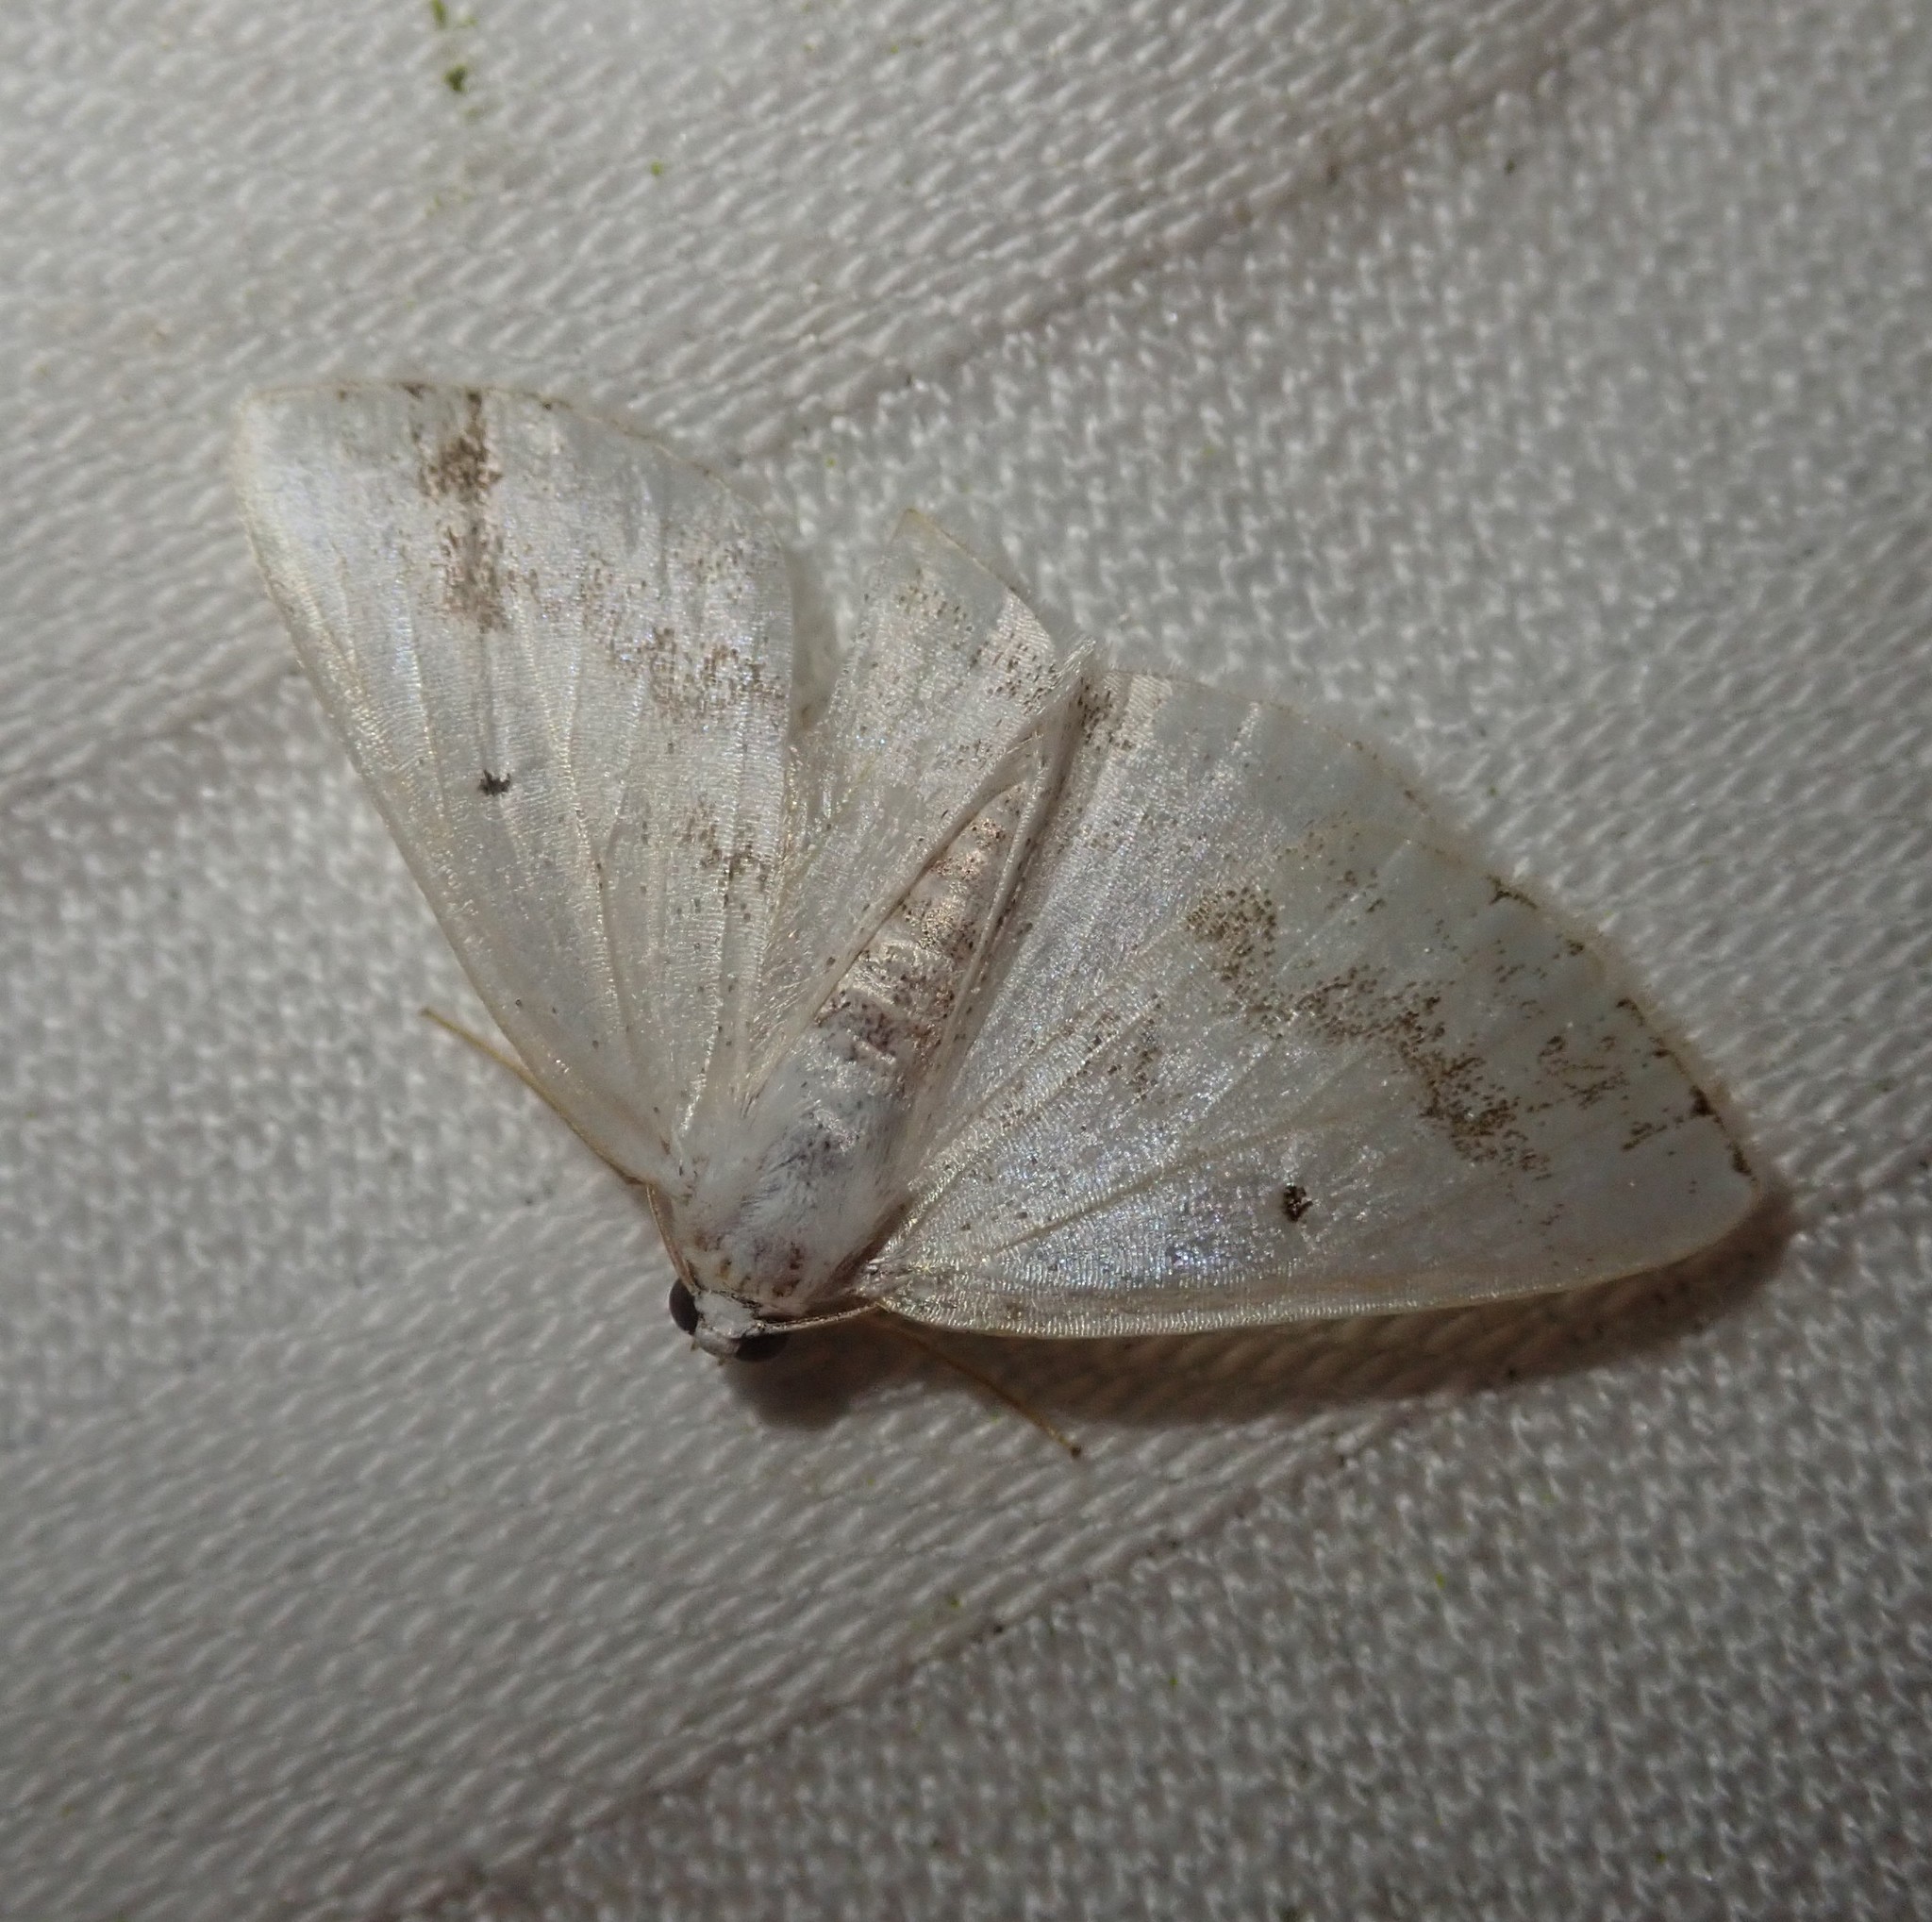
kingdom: Animalia
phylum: Arthropoda
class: Insecta
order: Lepidoptera
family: Geometridae
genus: Lomographa
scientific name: Lomographa temerata
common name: Clouded silver
